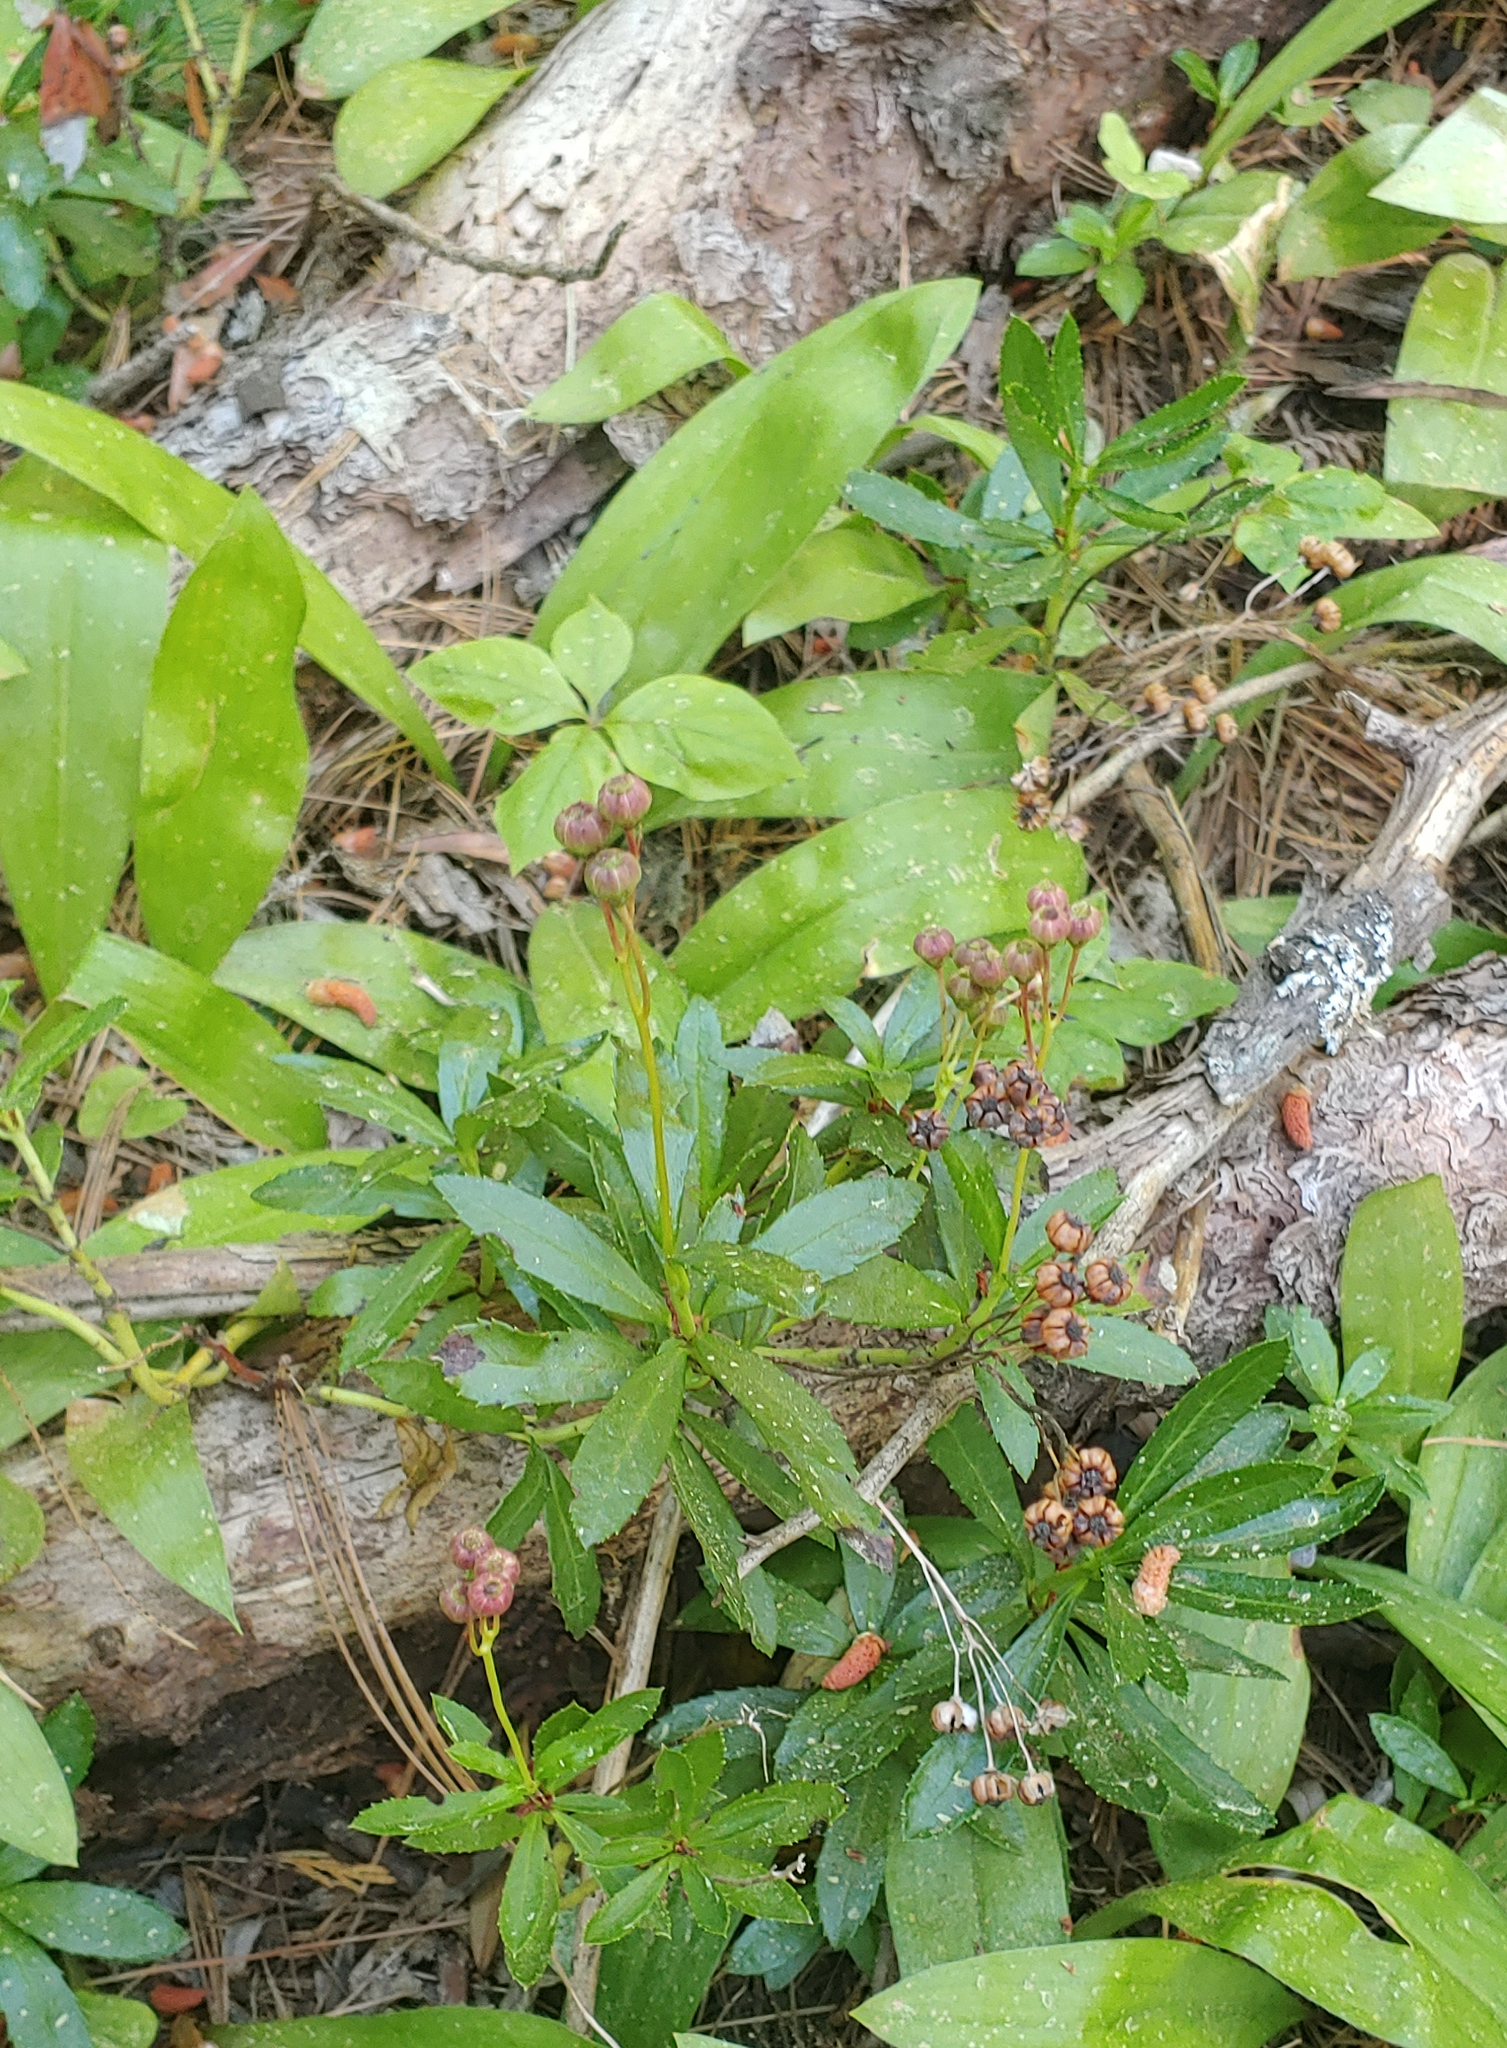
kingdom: Plantae
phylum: Tracheophyta
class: Magnoliopsida
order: Ericales
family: Ericaceae
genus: Chimaphila
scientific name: Chimaphila umbellata
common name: Pipsissewa
